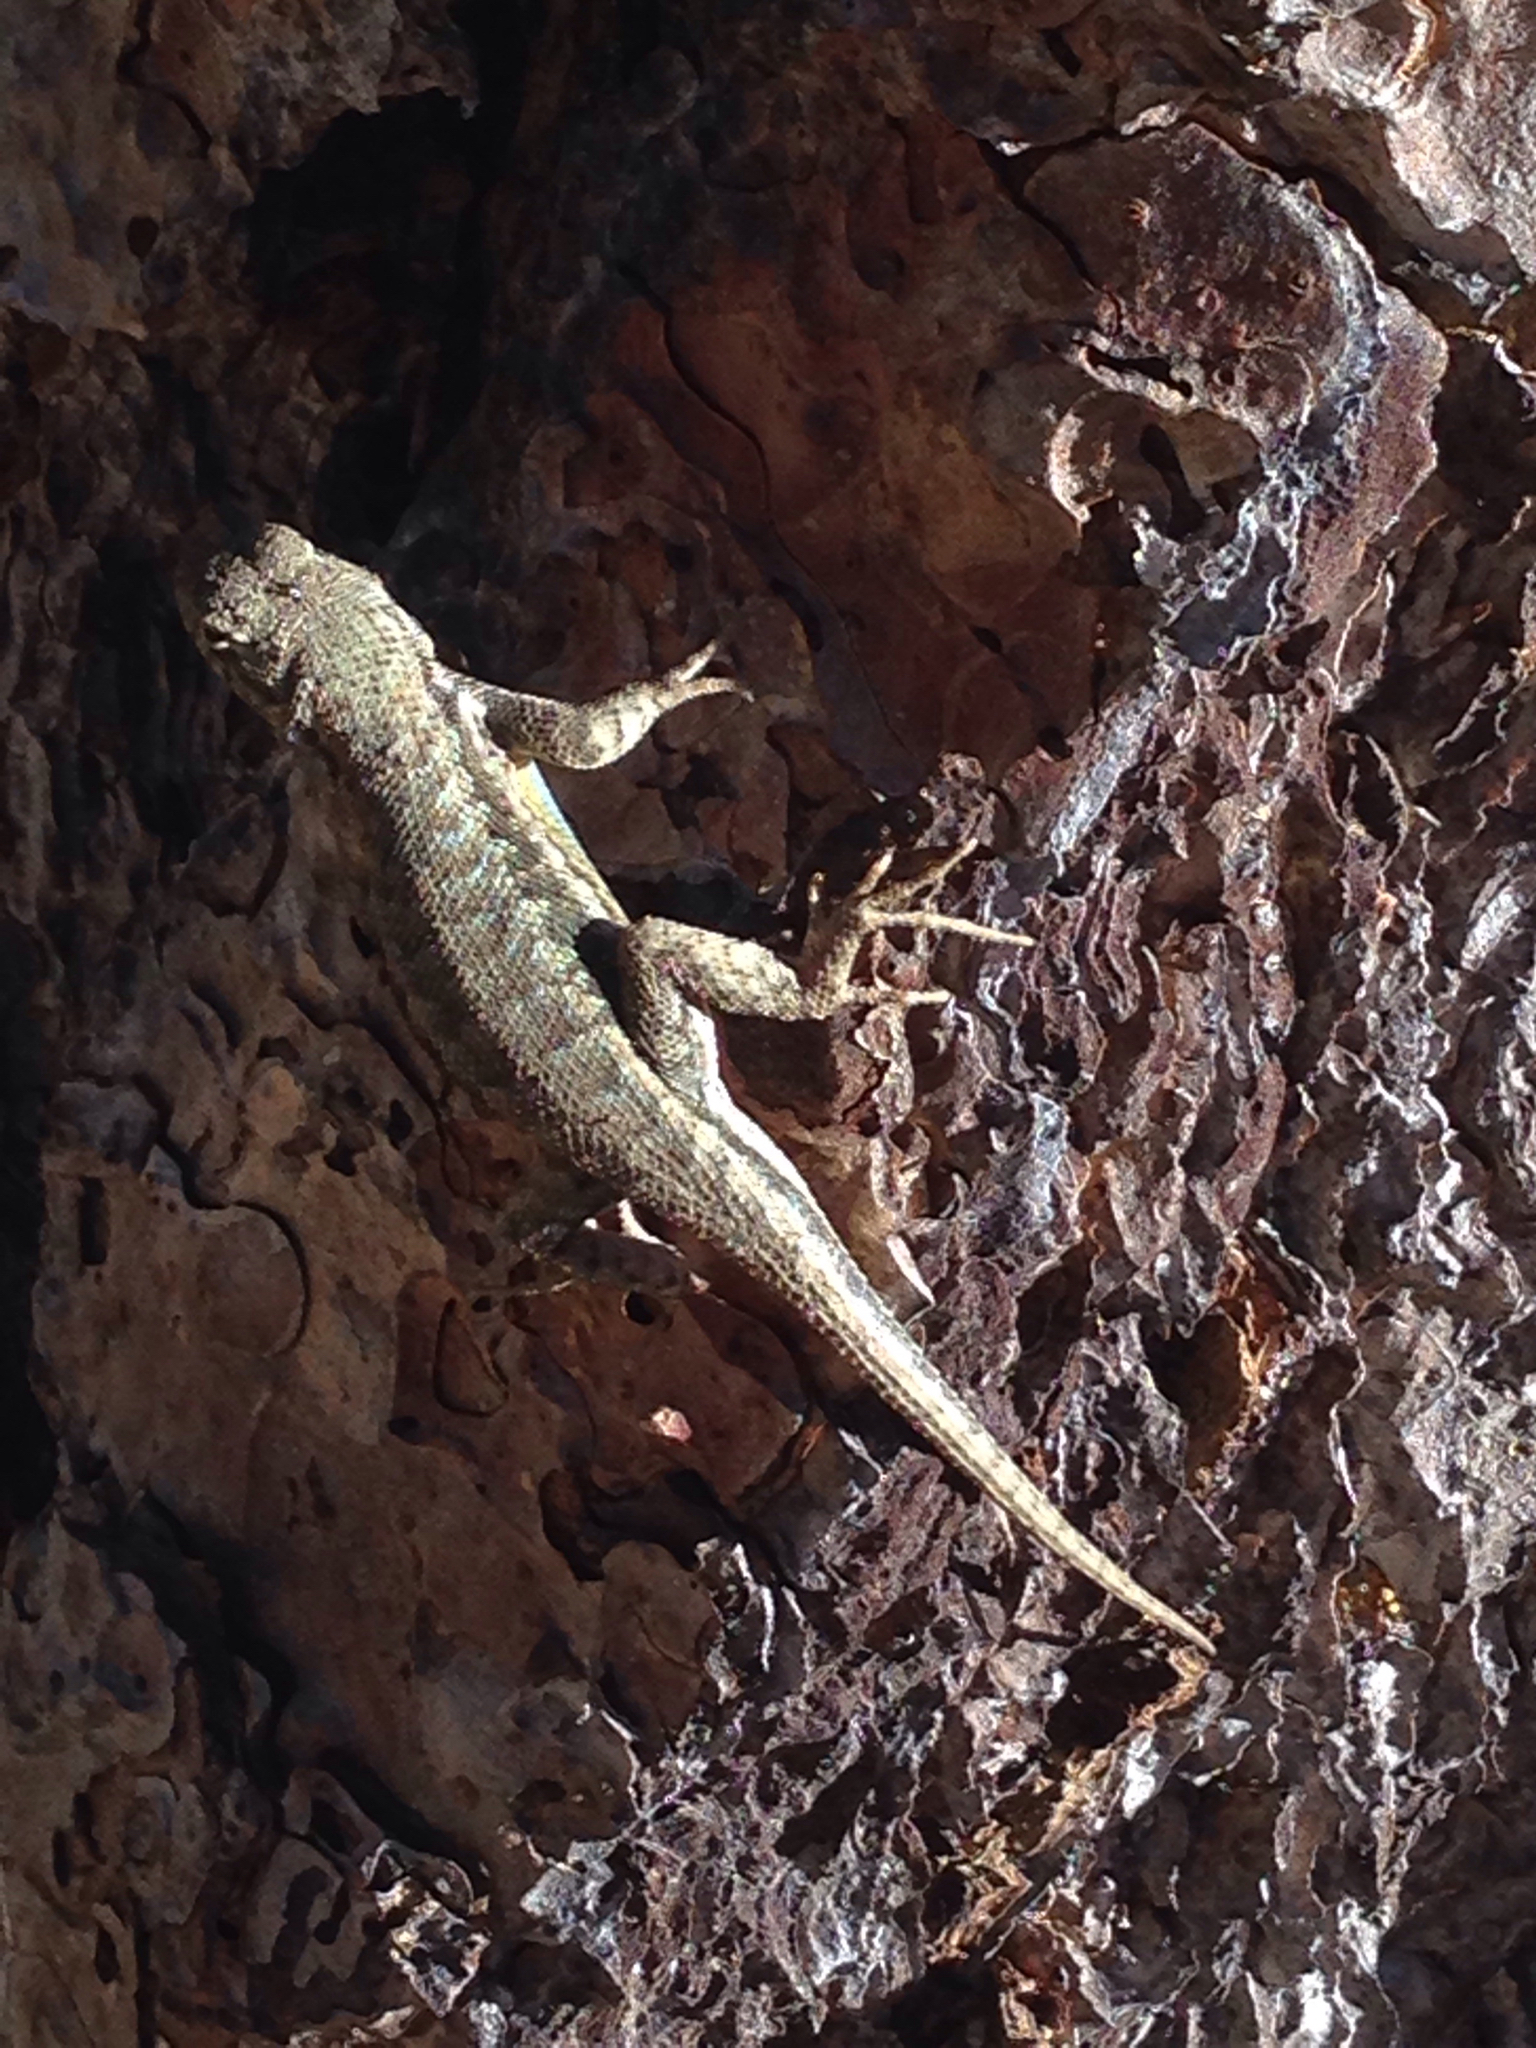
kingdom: Animalia
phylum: Chordata
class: Squamata
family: Phrynosomatidae
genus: Sceloporus
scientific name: Sceloporus graciosus
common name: Sagebrush lizard
